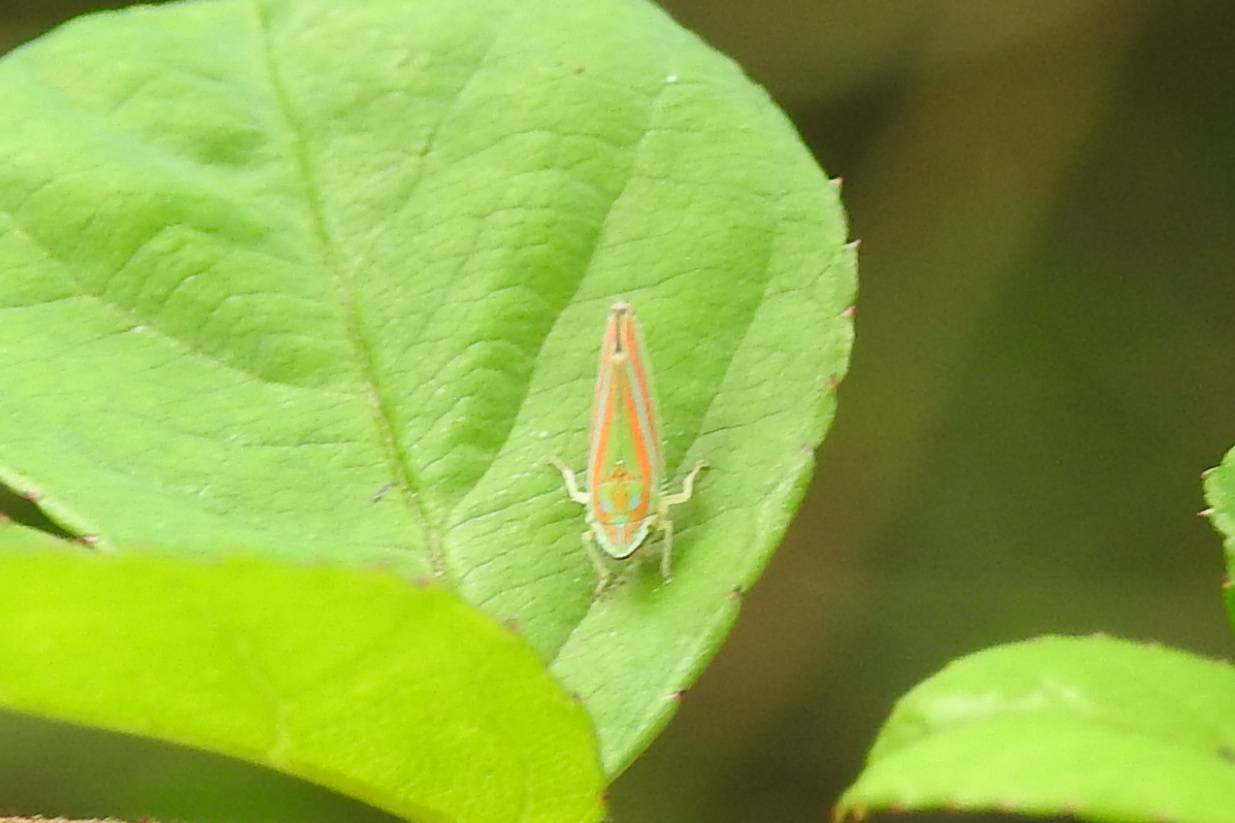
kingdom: Animalia
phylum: Arthropoda
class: Insecta
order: Hemiptera
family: Cicadellidae
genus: Graphocephala
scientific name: Graphocephala versuta
